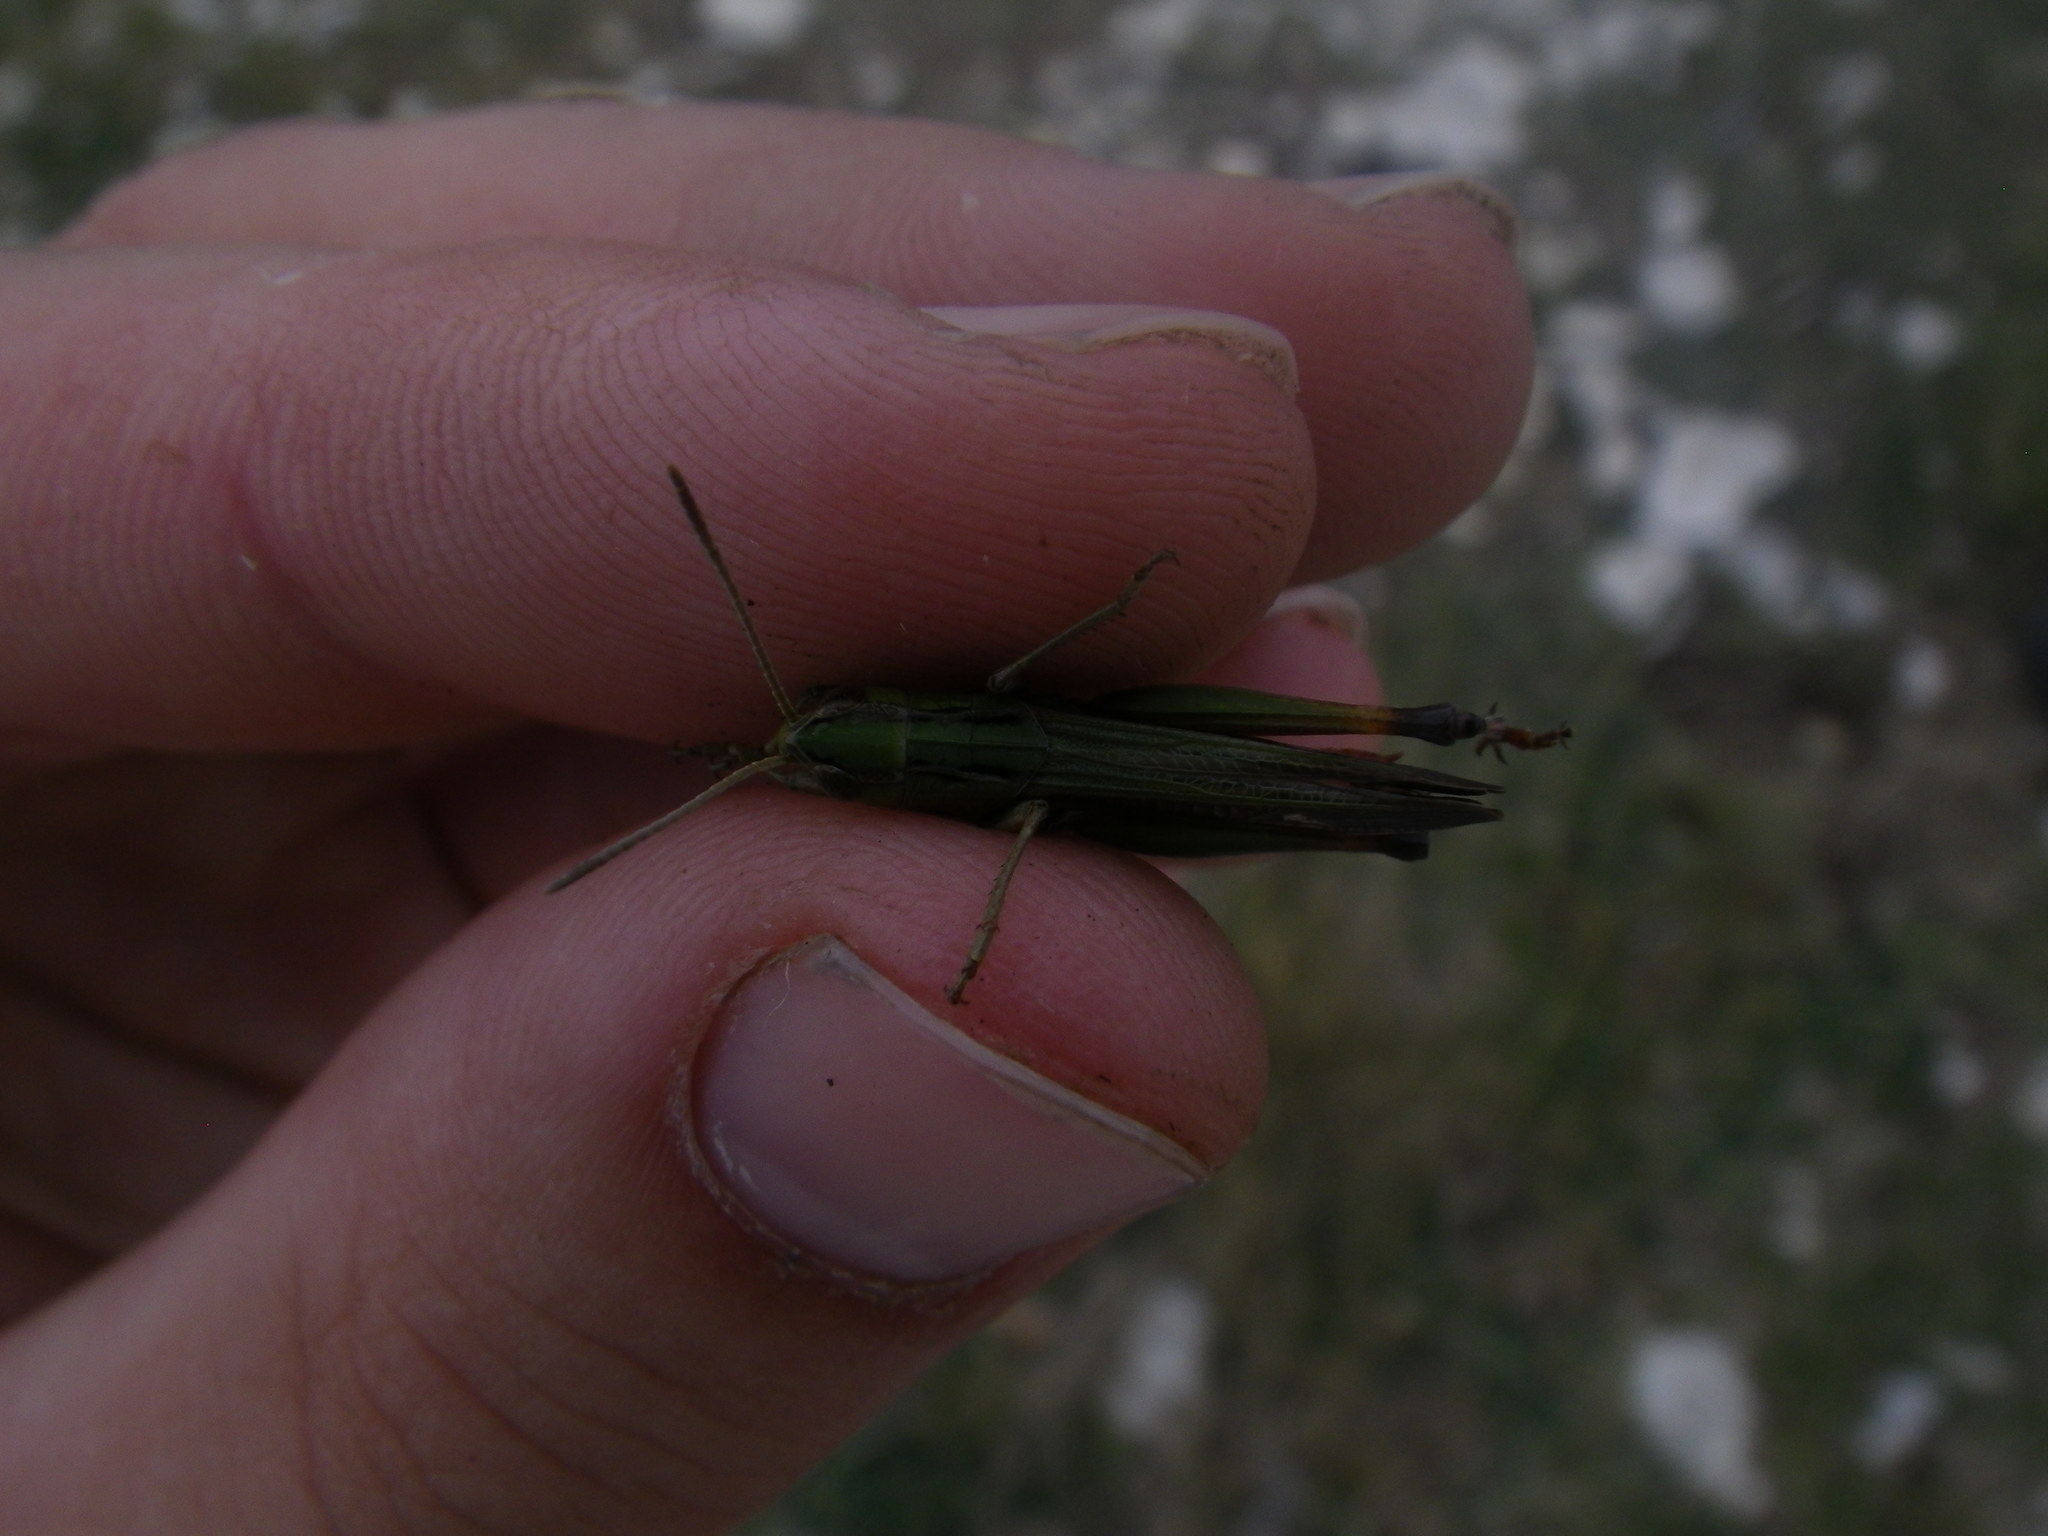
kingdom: Animalia
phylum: Arthropoda
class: Insecta
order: Orthoptera
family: Acrididae
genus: Stenobothrus
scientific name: Stenobothrus lineatus
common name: Stripe-winged grasshopper
